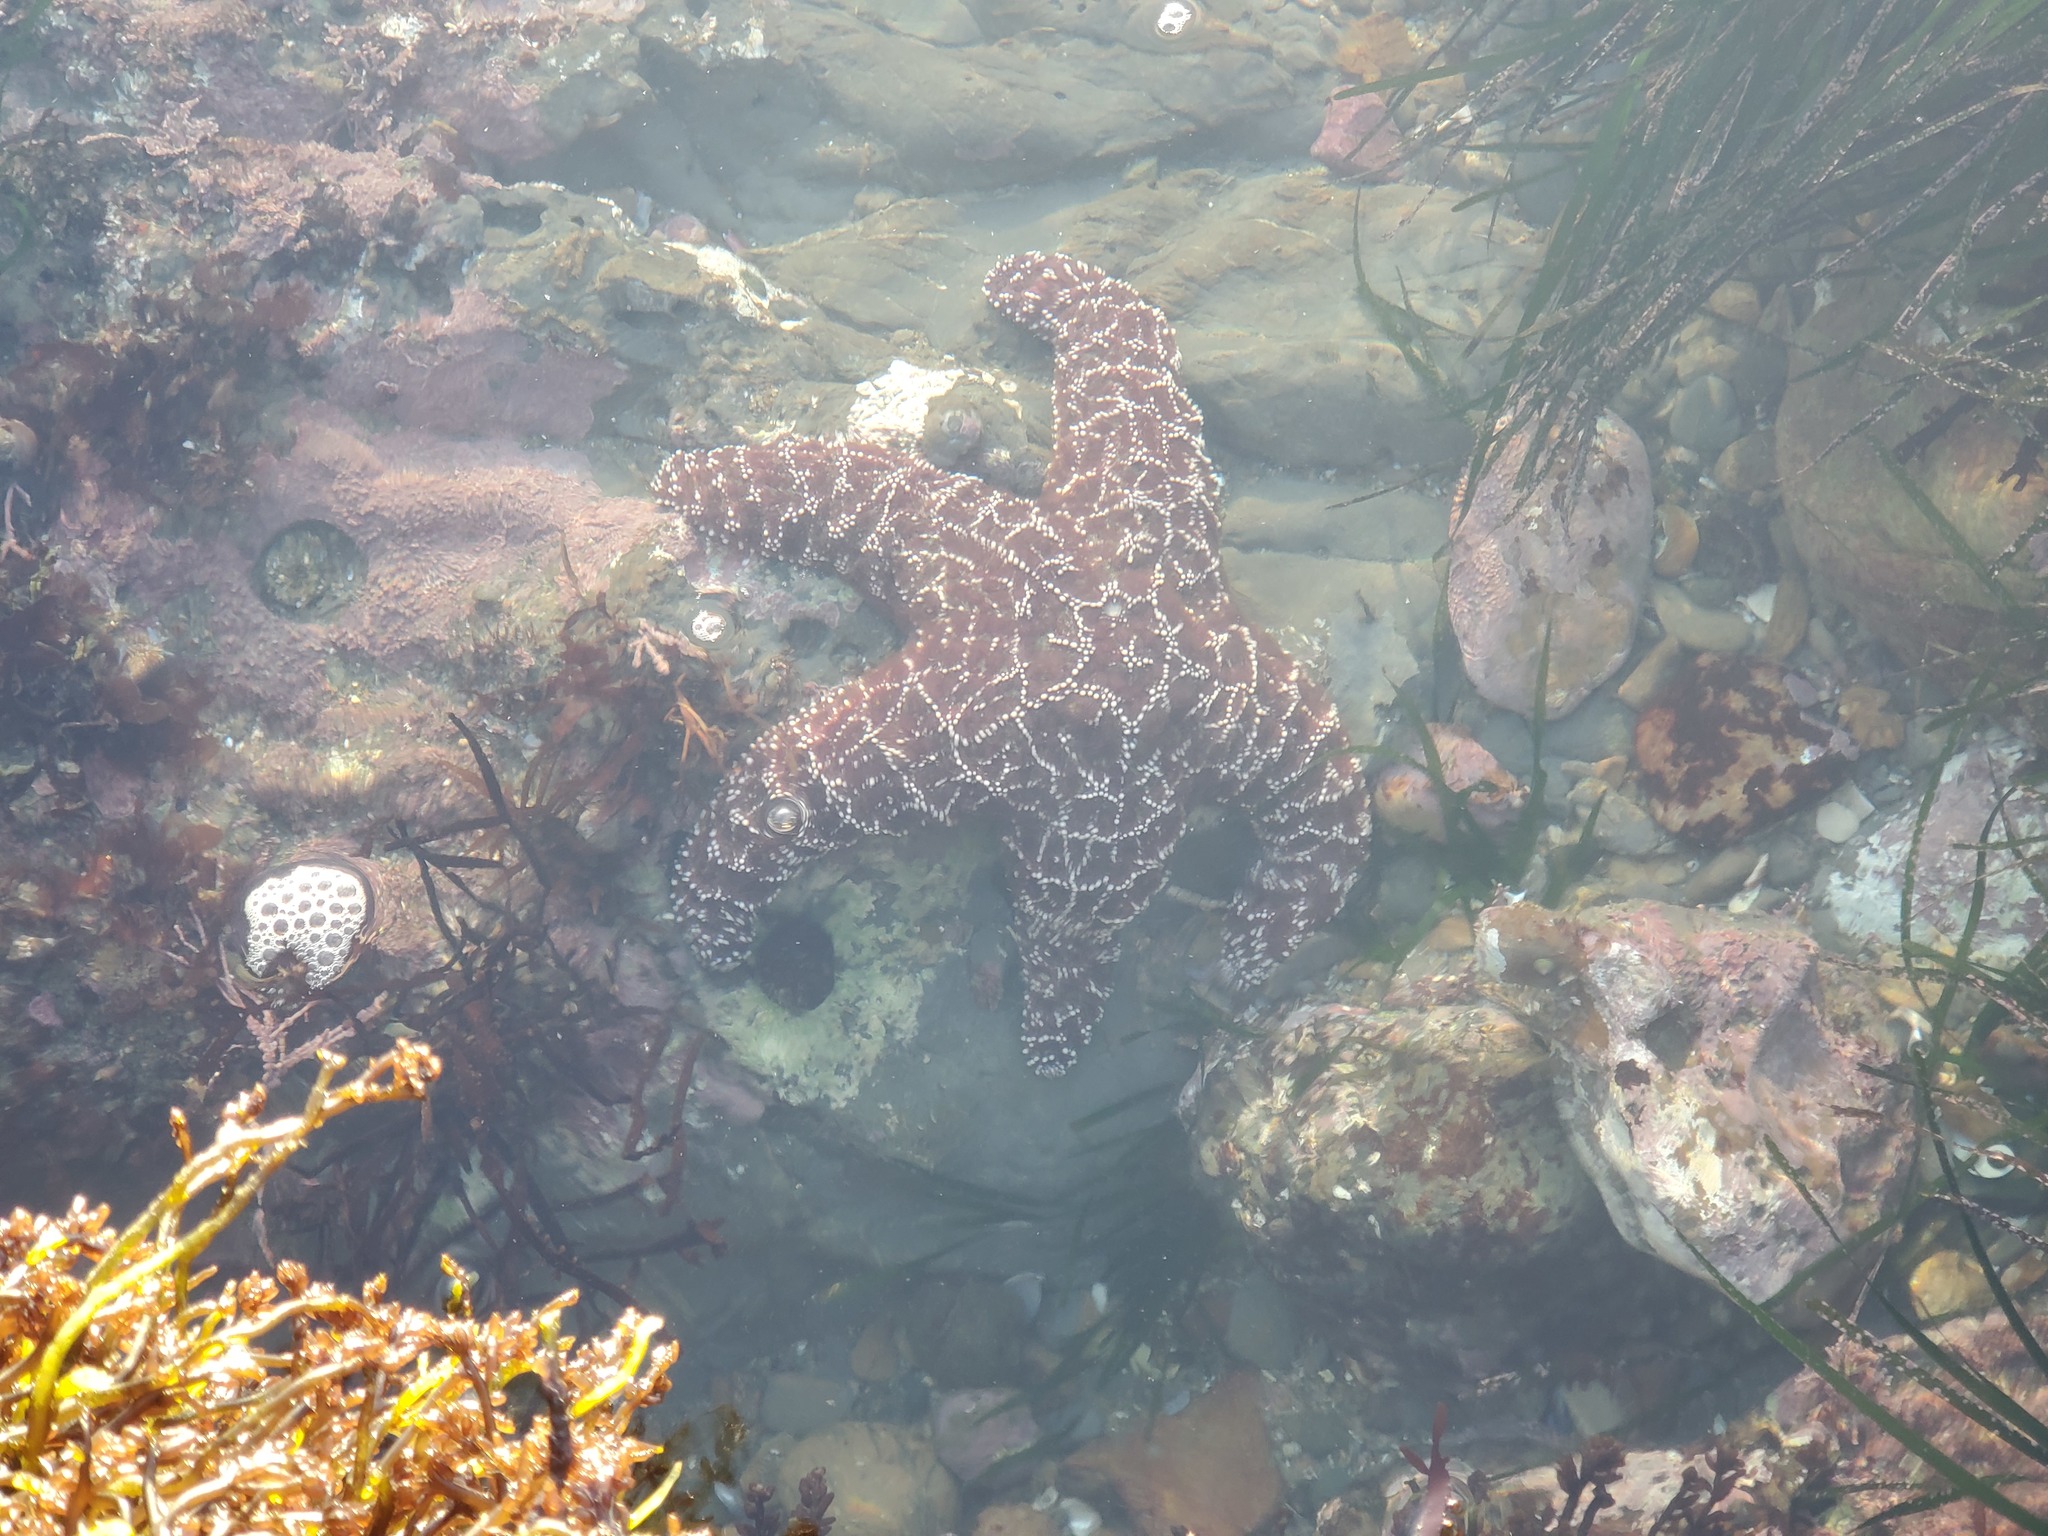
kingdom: Animalia
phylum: Echinodermata
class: Asteroidea
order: Forcipulatida
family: Asteriidae
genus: Pisaster
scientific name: Pisaster ochraceus
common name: Ochre stars
